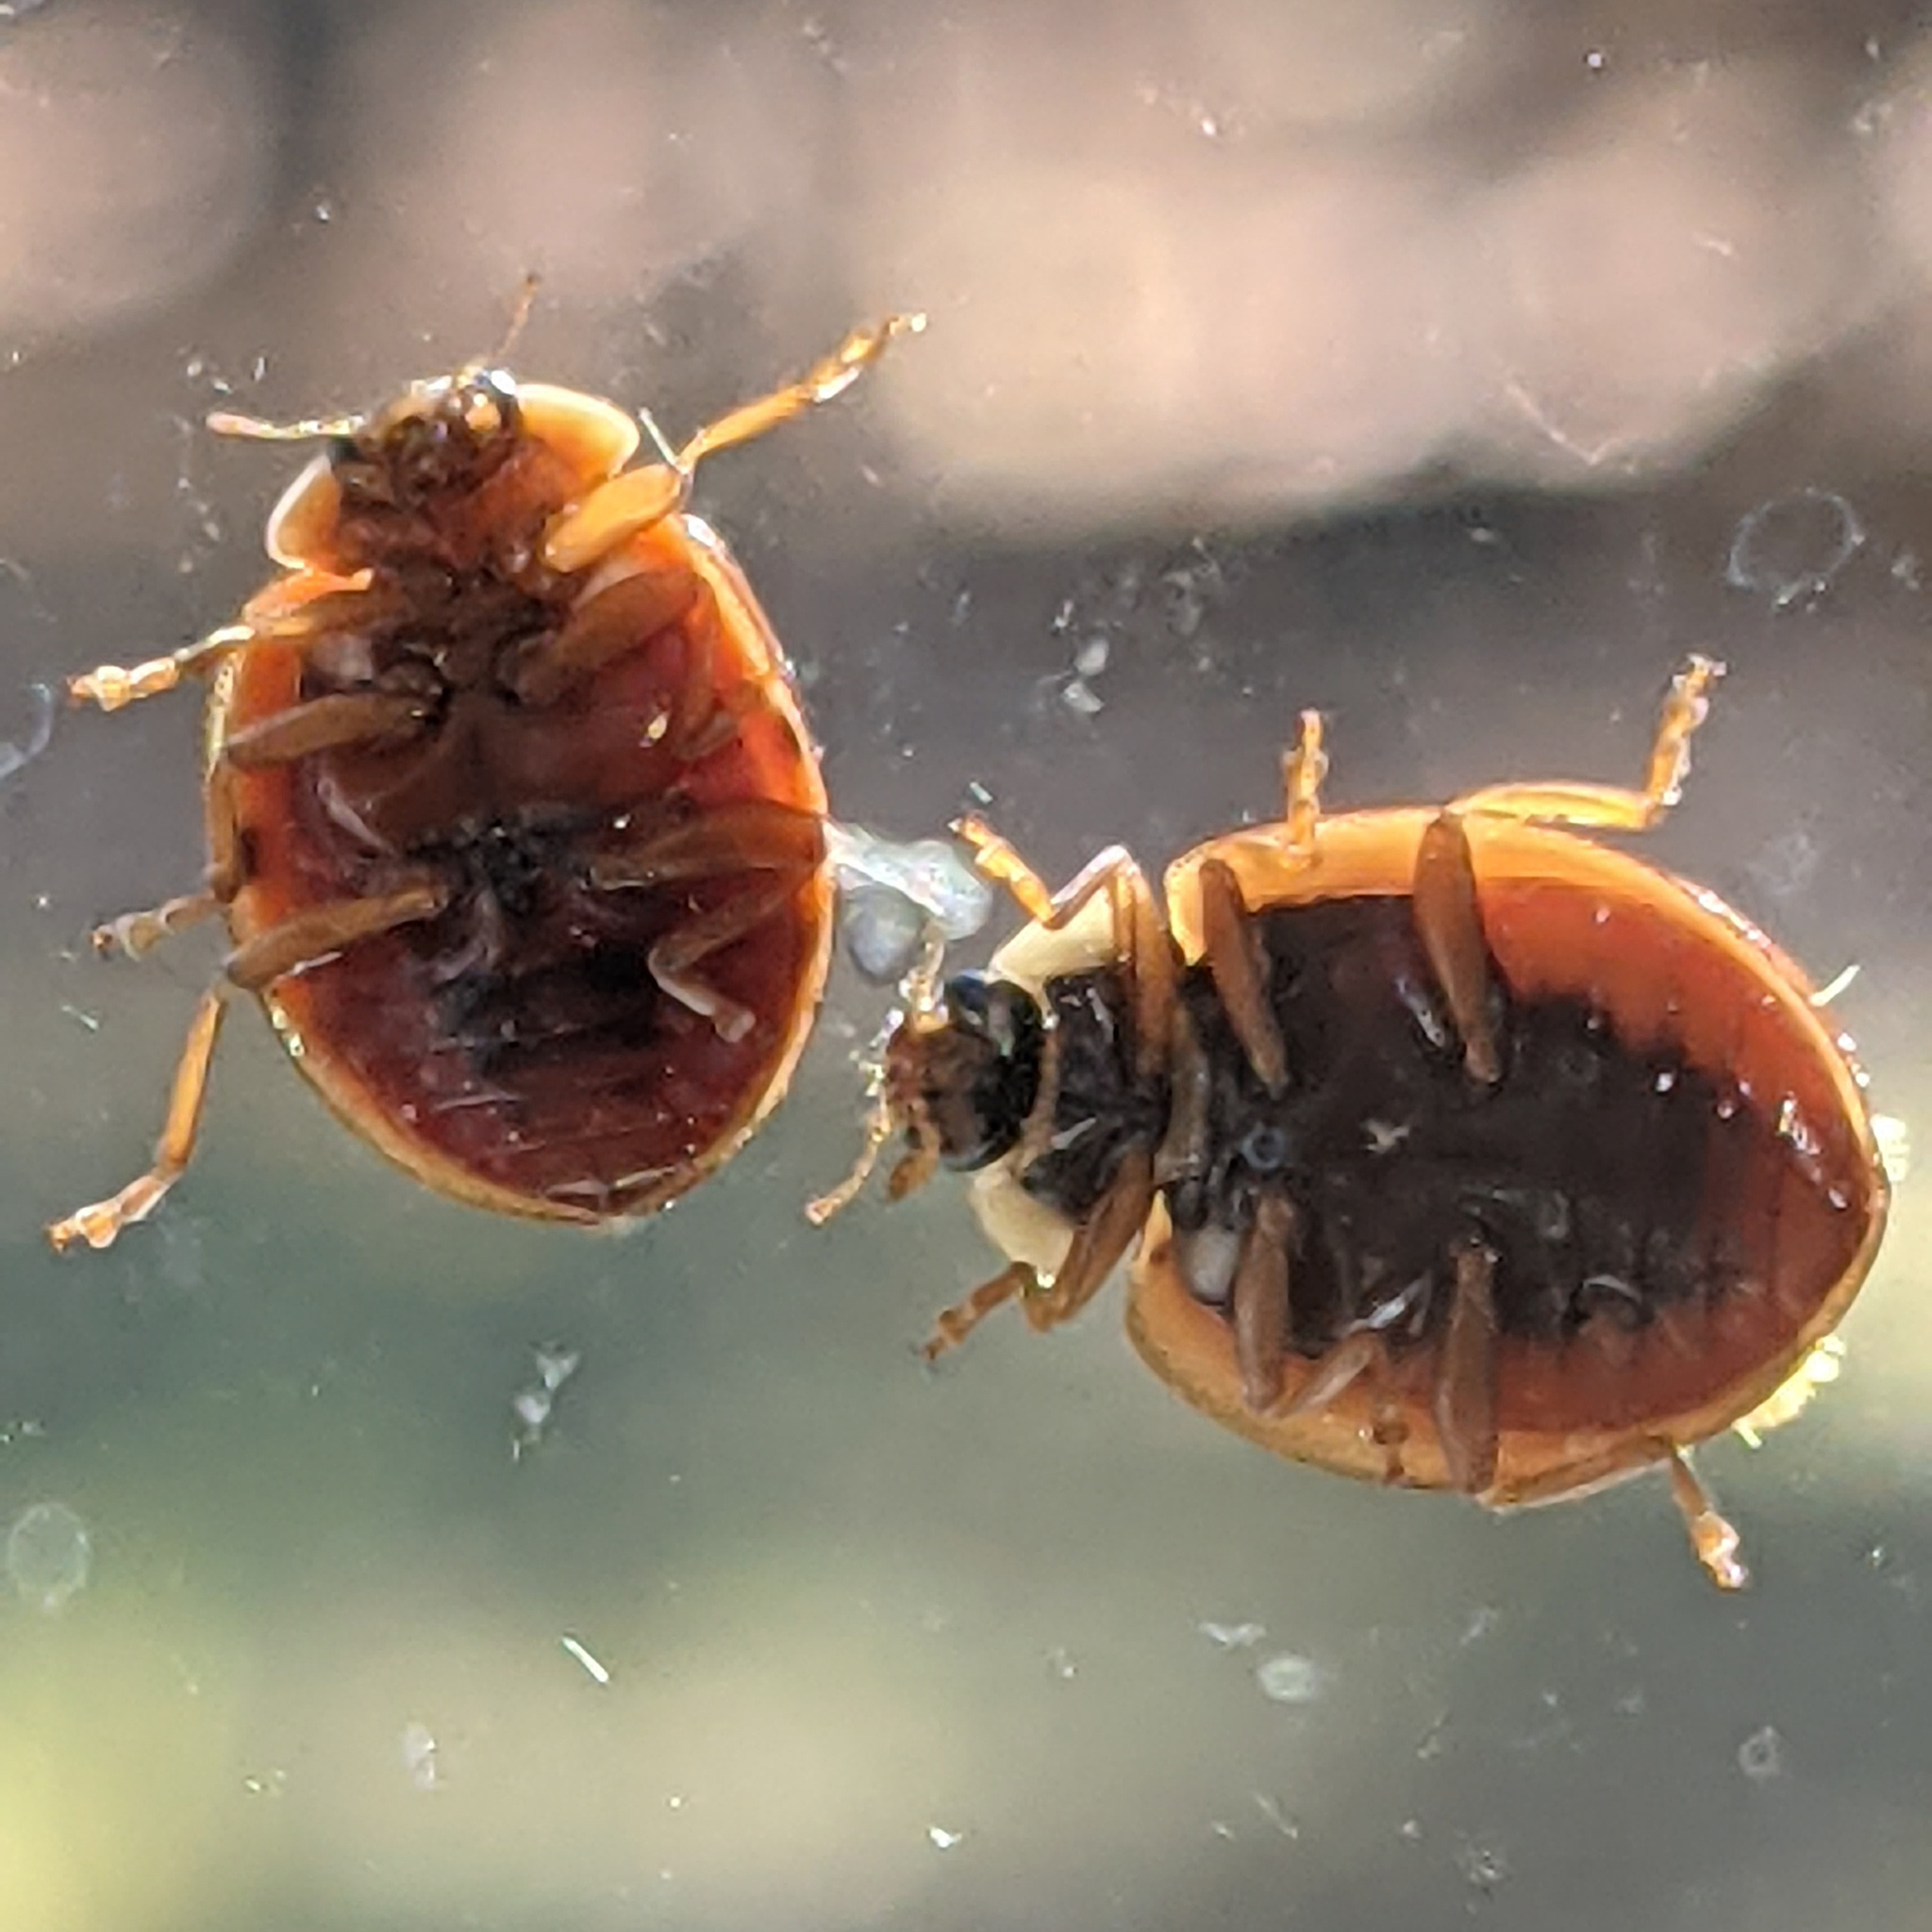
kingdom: Animalia
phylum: Arthropoda
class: Insecta
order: Coleoptera
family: Coccinellidae
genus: Harmonia
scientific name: Harmonia axyridis
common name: Harlequin ladybird
